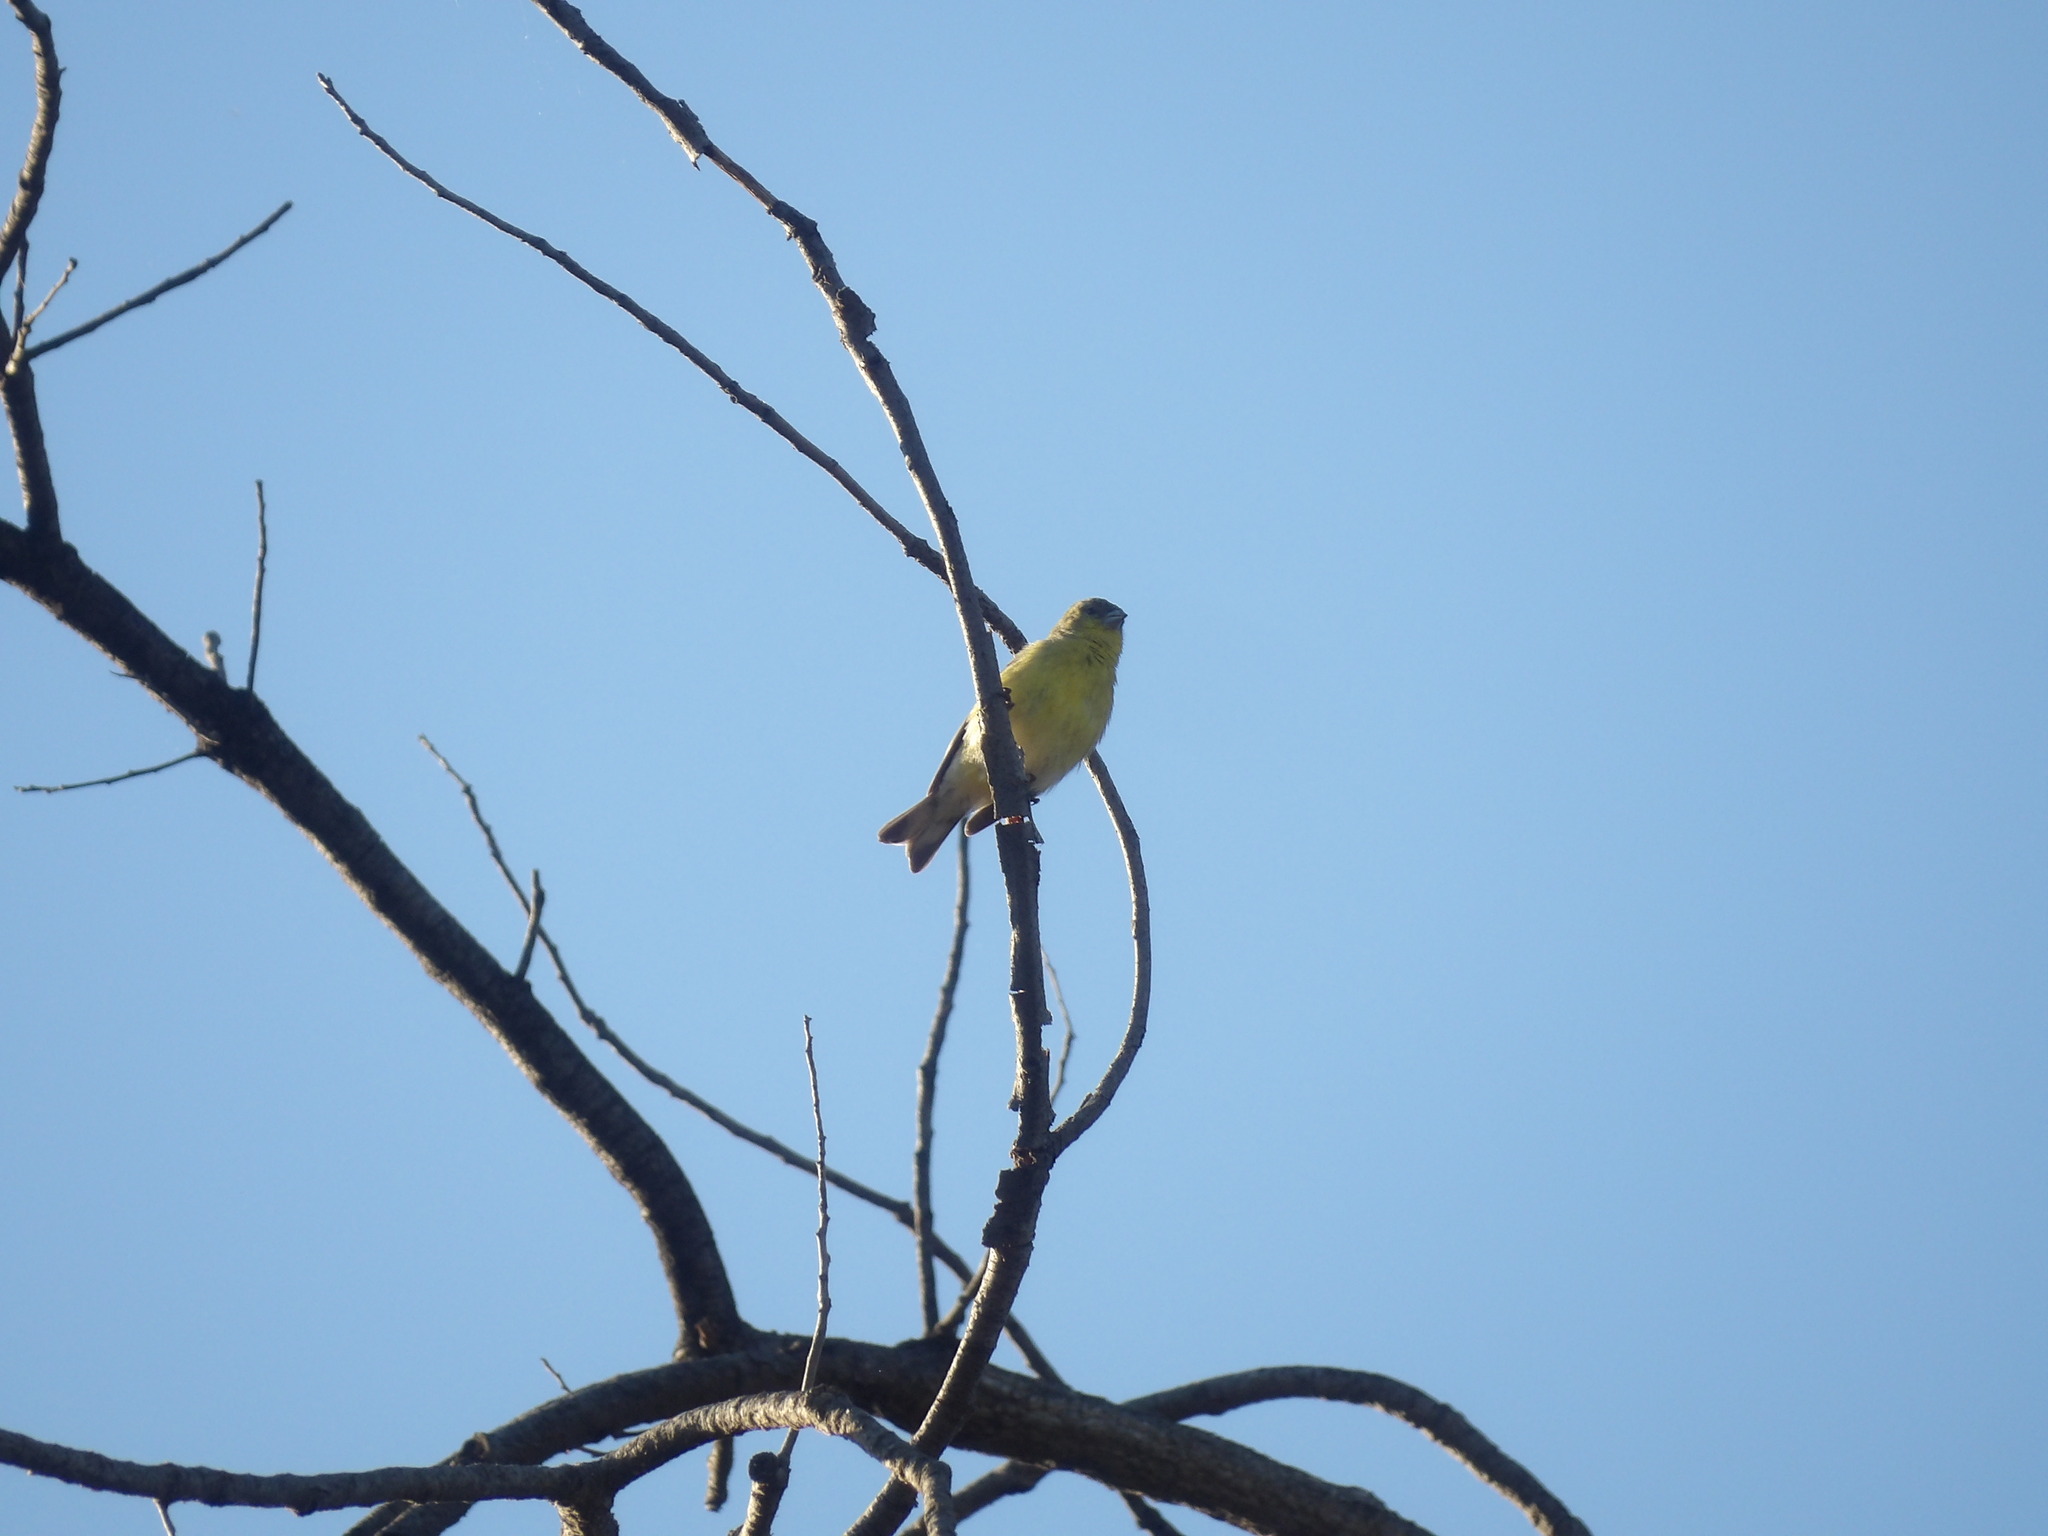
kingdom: Animalia
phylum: Chordata
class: Aves
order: Passeriformes
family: Fringillidae
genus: Spinus
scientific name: Spinus psaltria
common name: Lesser goldfinch
